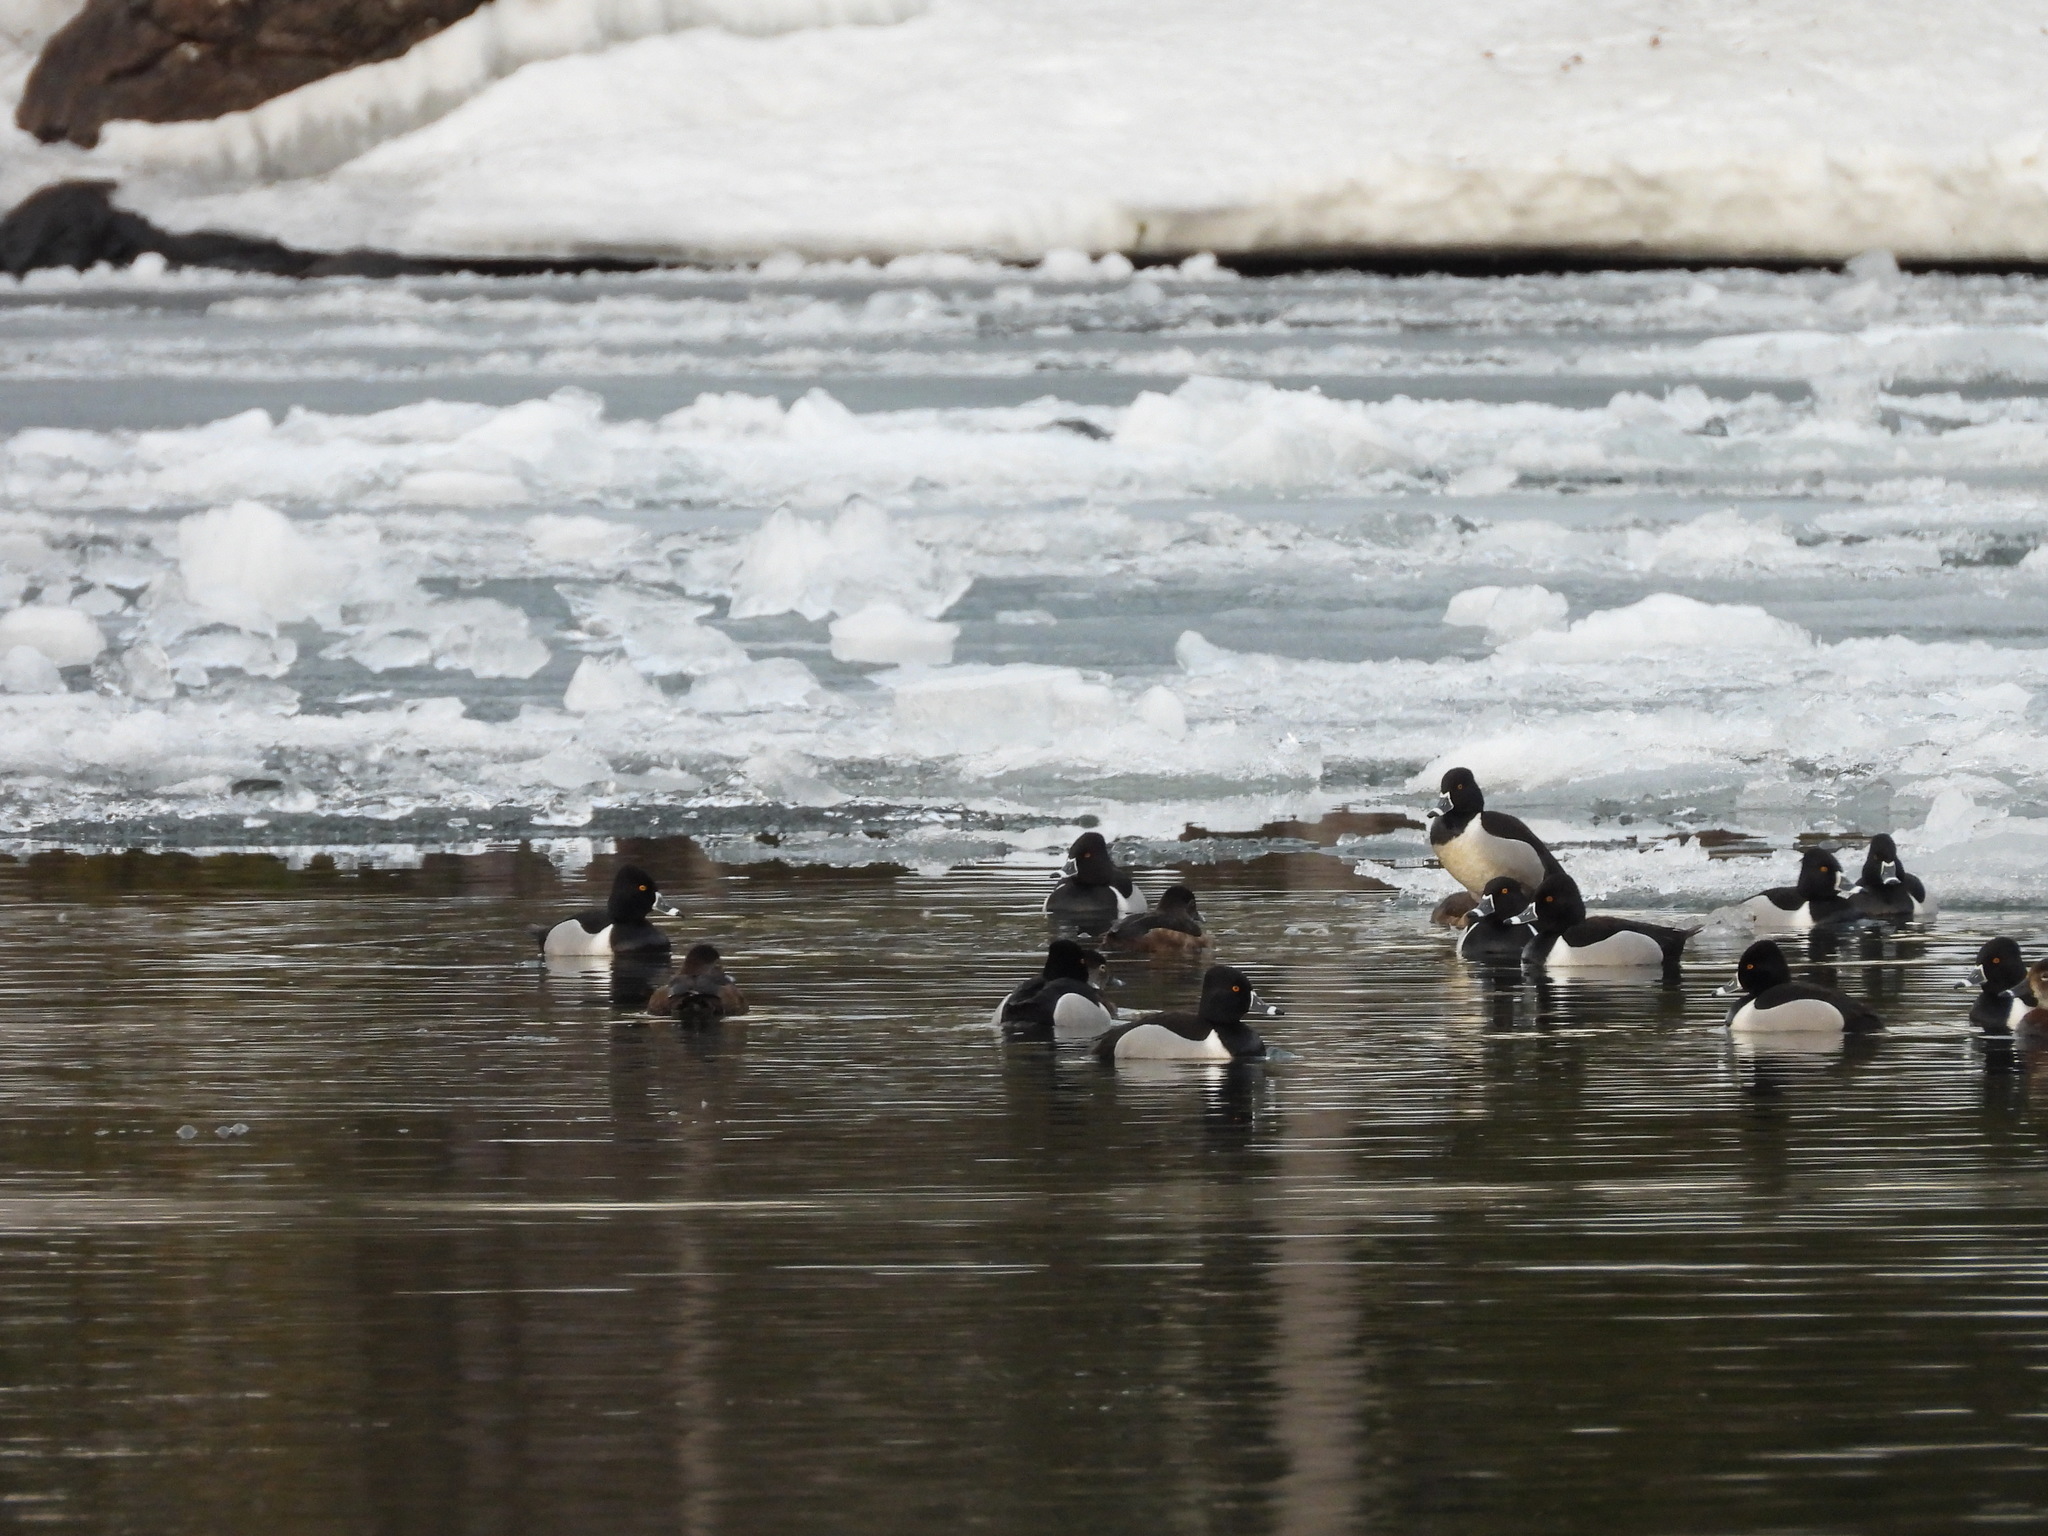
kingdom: Animalia
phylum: Chordata
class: Aves
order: Anseriformes
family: Anatidae
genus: Aythya
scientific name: Aythya collaris
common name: Ring-necked duck
